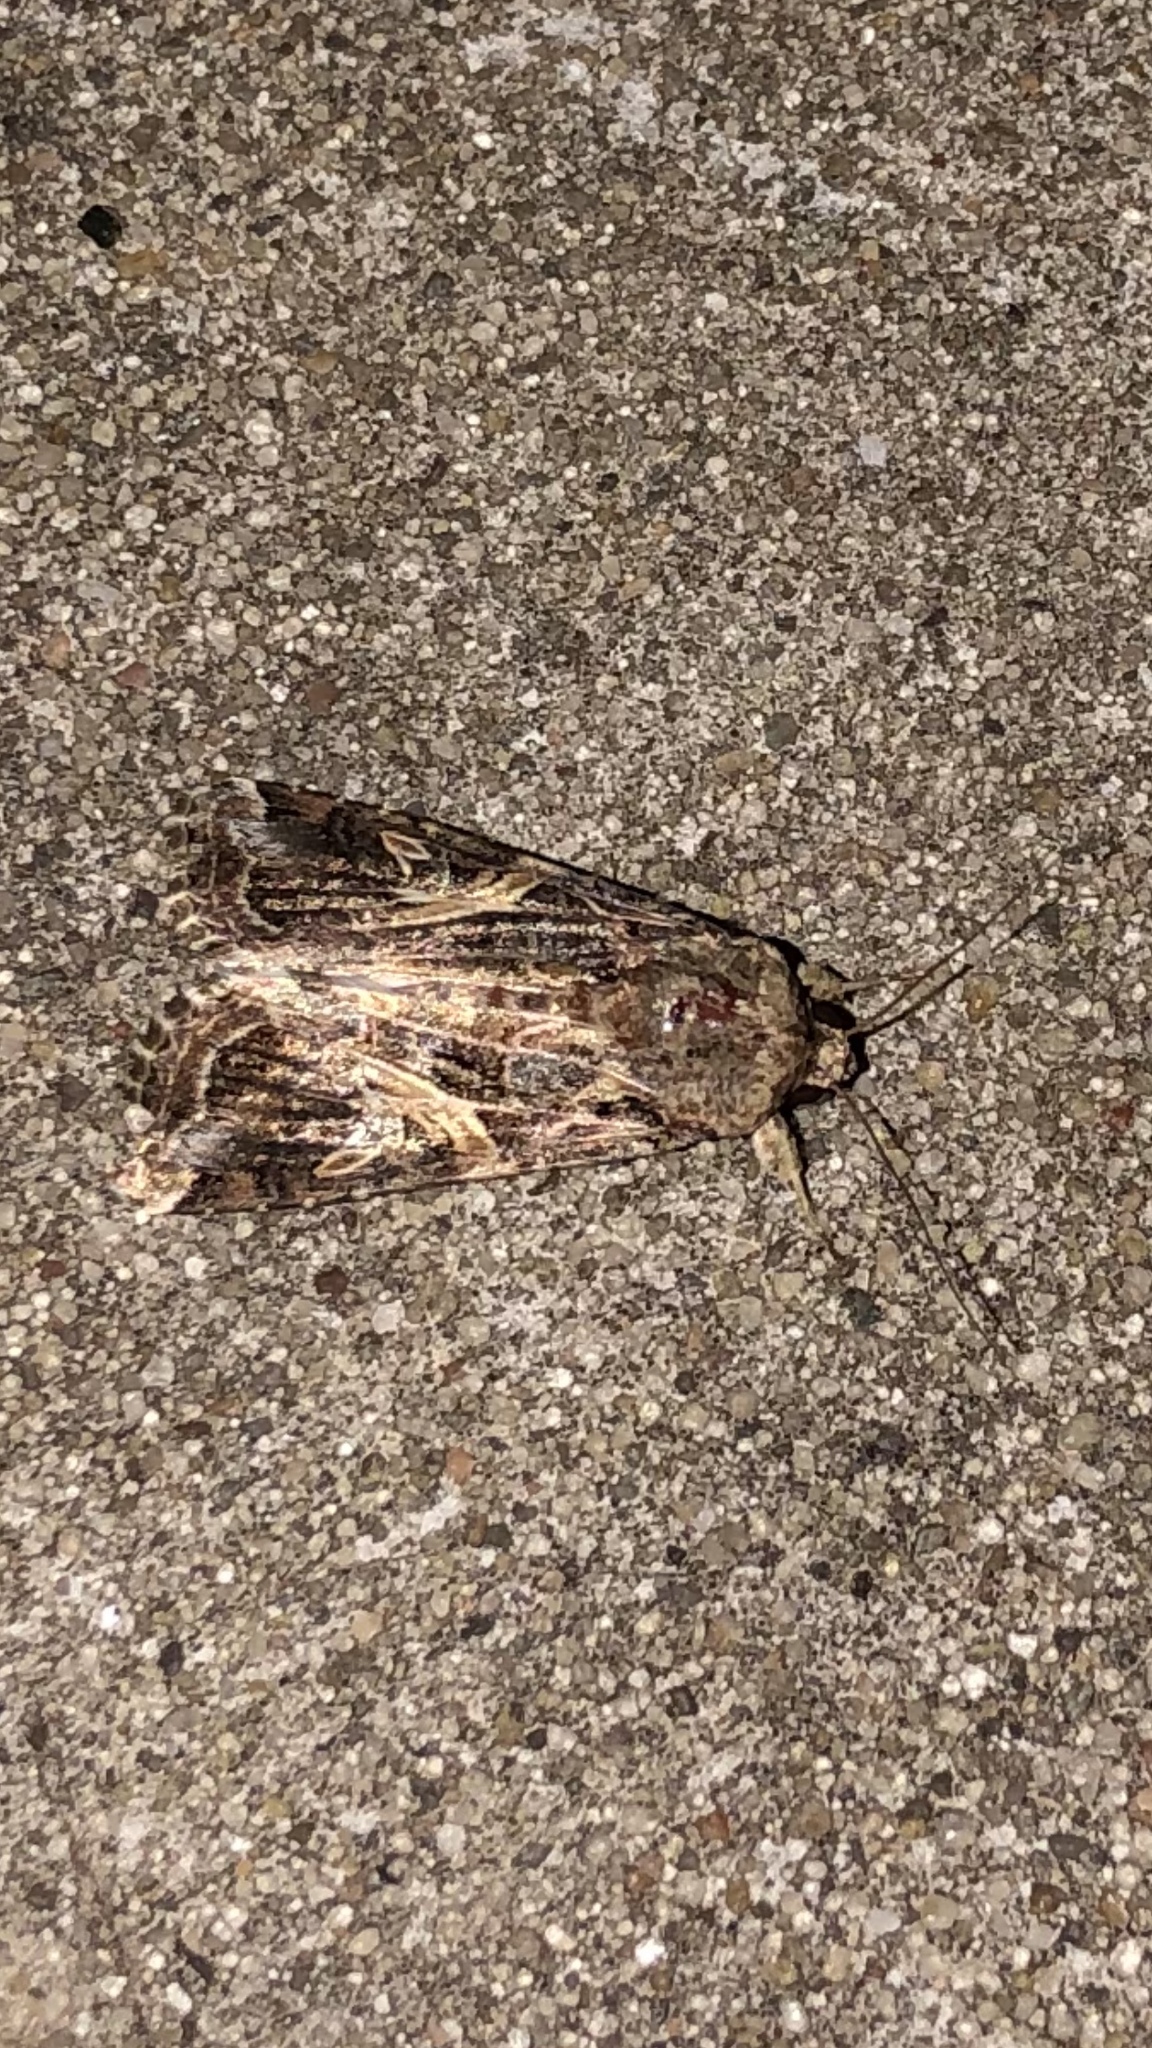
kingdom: Animalia
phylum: Arthropoda
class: Insecta
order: Lepidoptera
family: Noctuidae
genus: Spodoptera
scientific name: Spodoptera ornithogalli
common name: Yellow-striped armyworm
